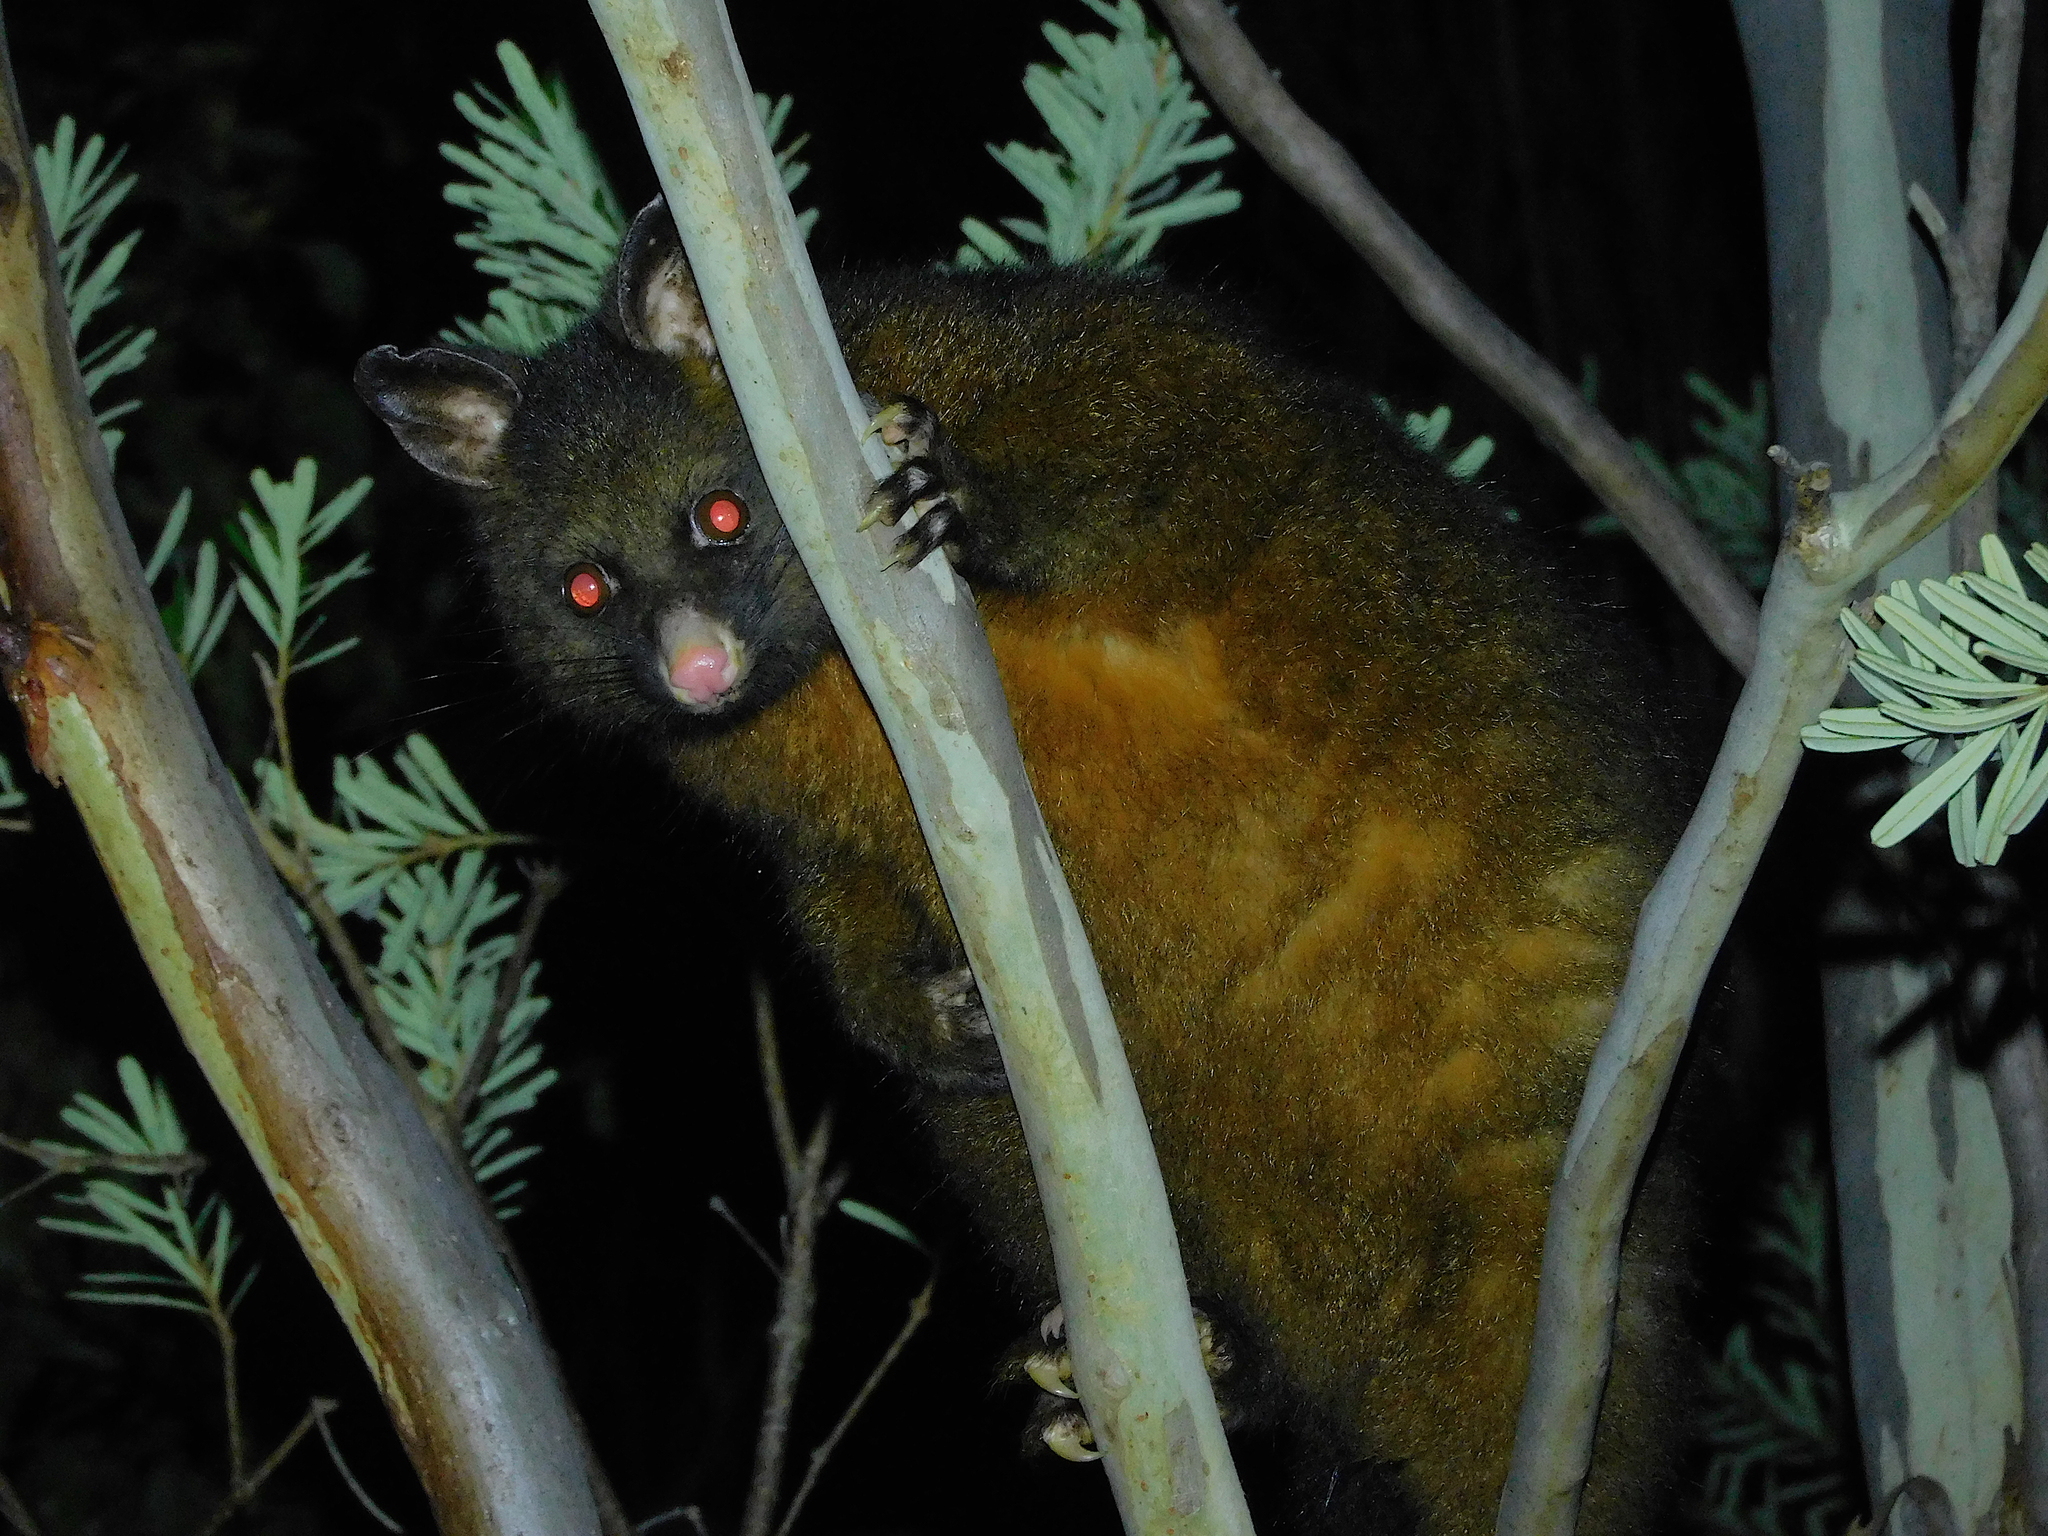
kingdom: Animalia
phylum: Chordata
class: Mammalia
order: Diprotodontia
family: Phalangeridae
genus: Trichosurus
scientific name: Trichosurus vulpecula
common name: Common brushtail
